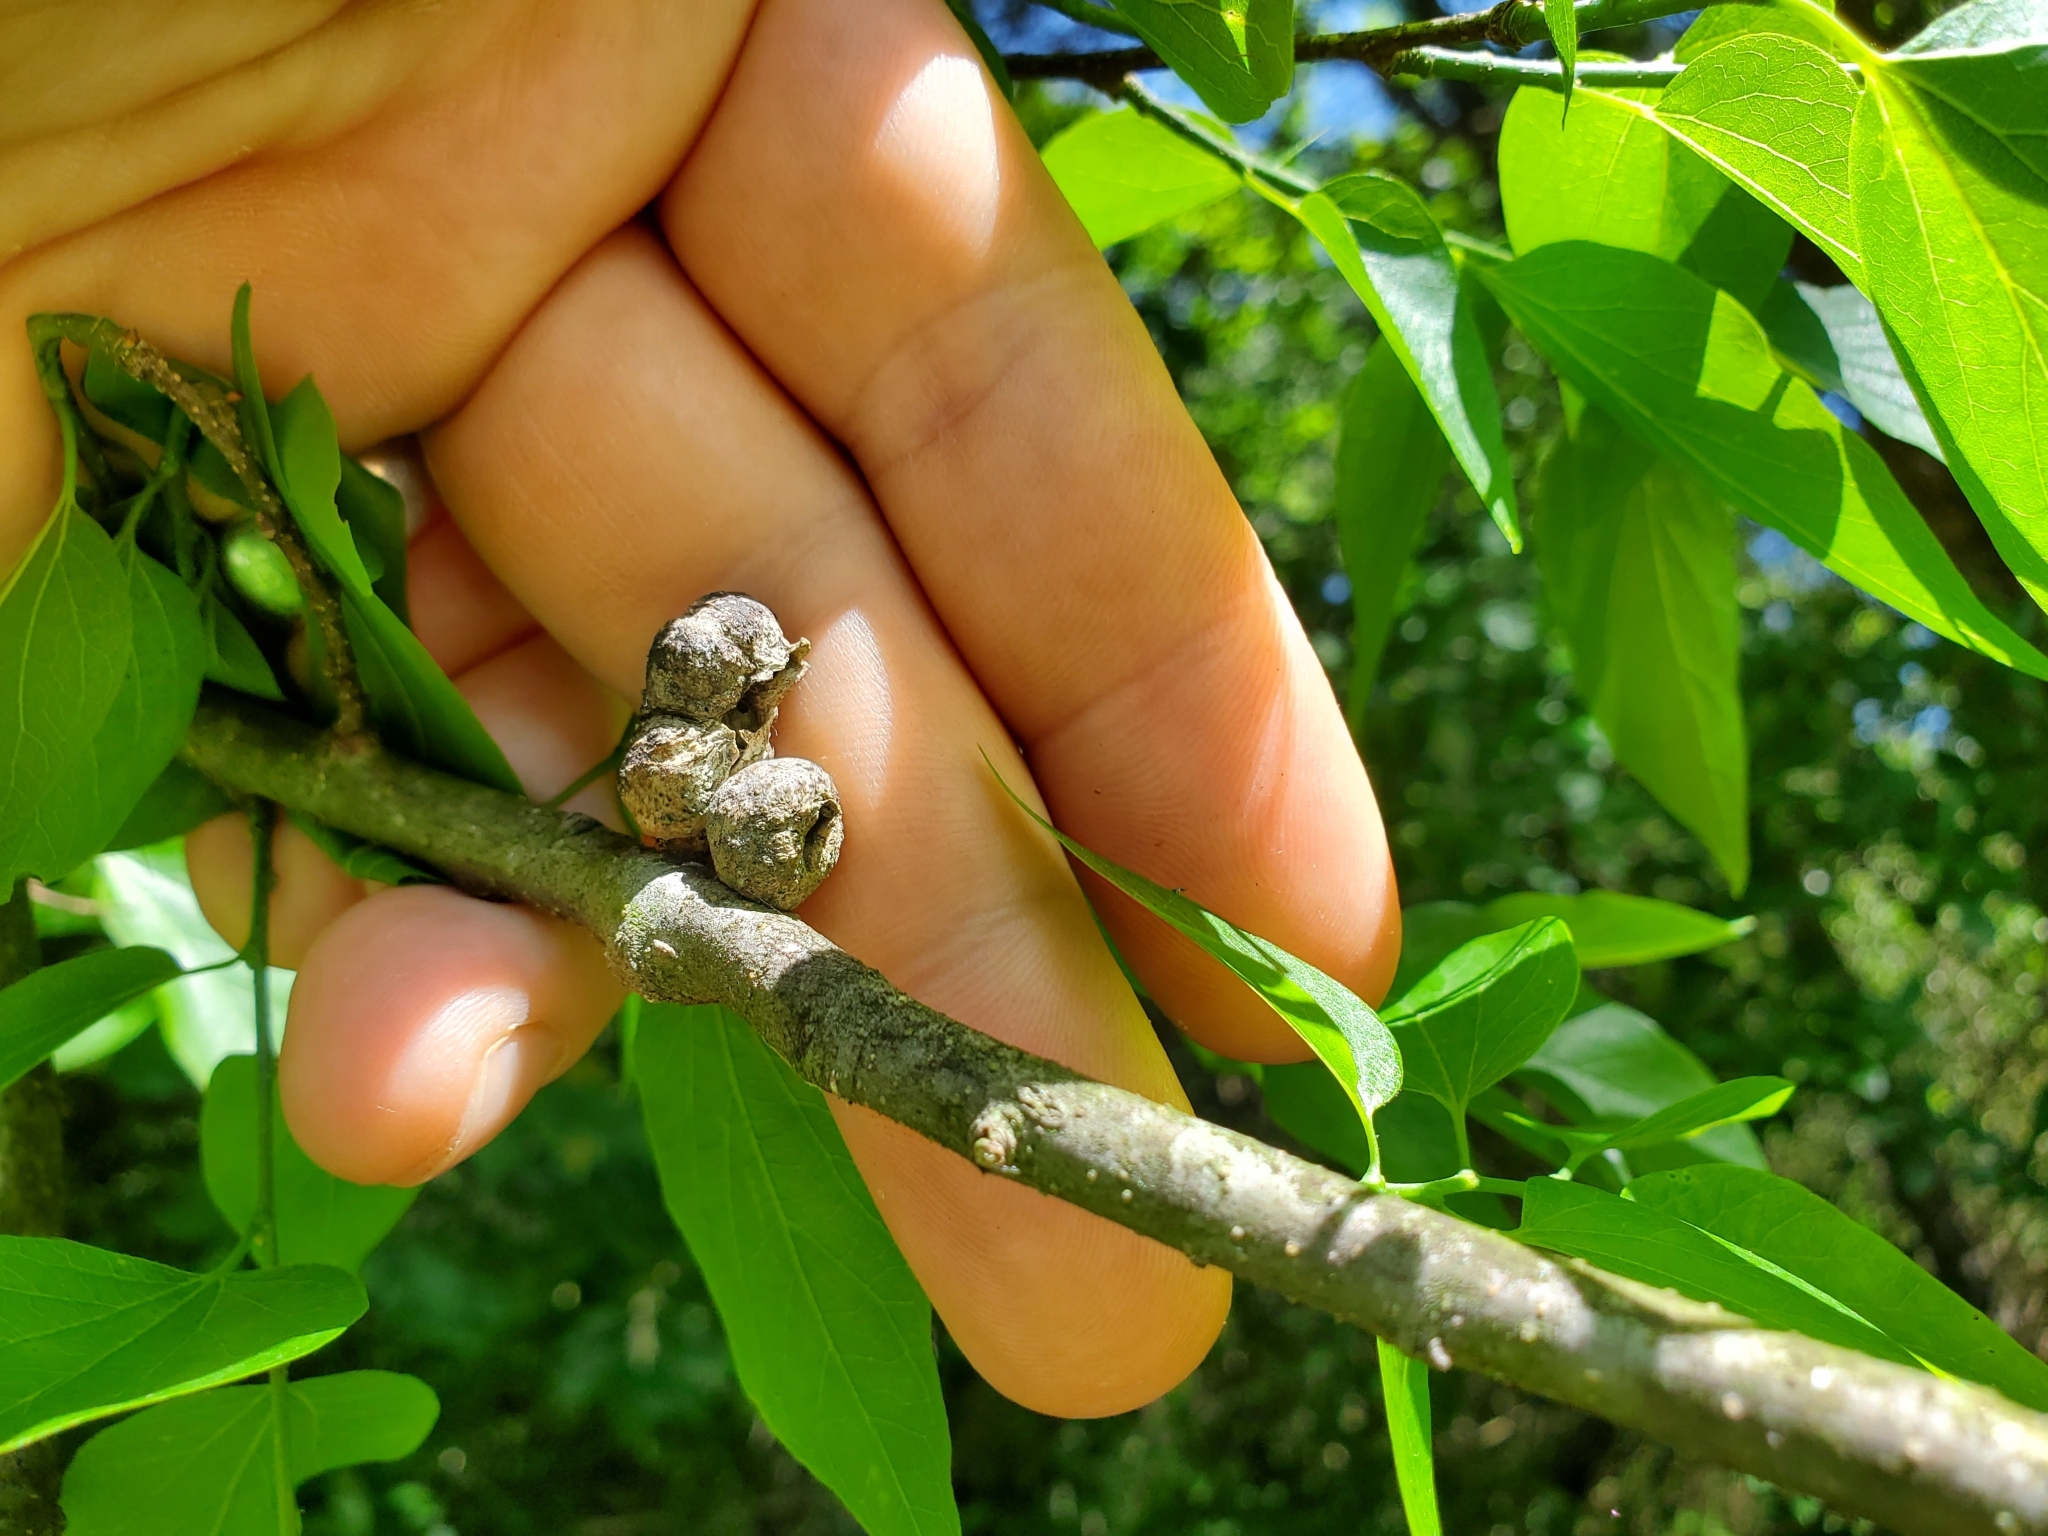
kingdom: Animalia
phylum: Arthropoda
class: Insecta
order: Hemiptera
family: Aphalaridae
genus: Pachypsylla
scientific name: Pachypsylla venusta
